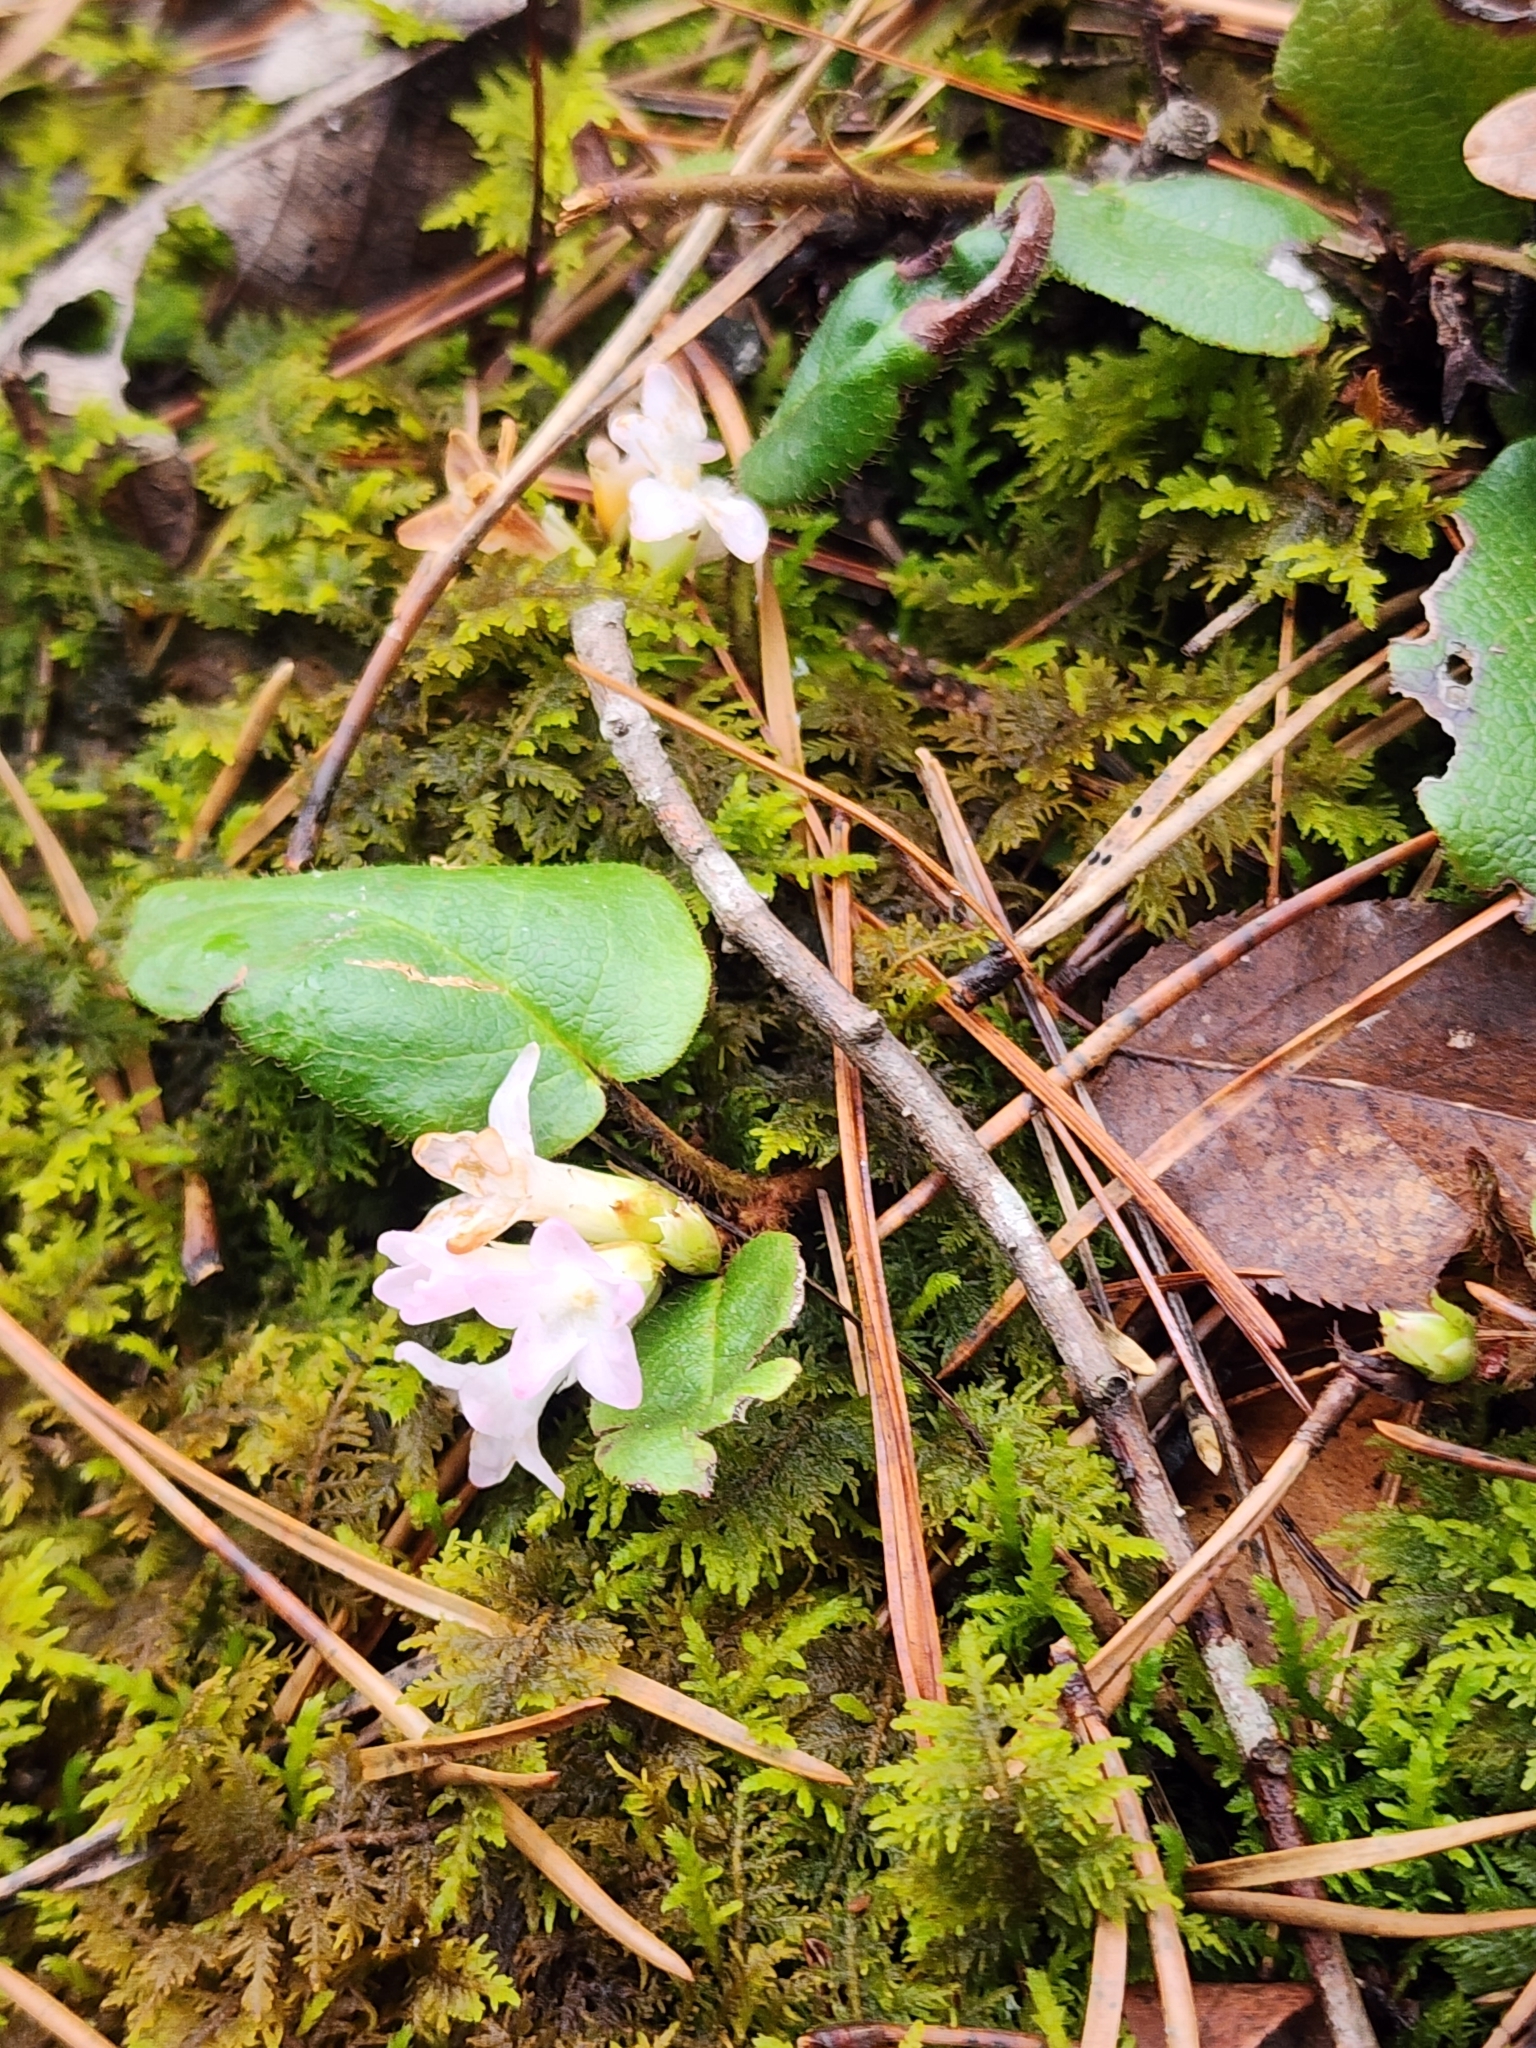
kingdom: Plantae
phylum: Tracheophyta
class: Magnoliopsida
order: Ericales
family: Ericaceae
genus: Epigaea
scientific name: Epigaea repens
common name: Gravelroot
